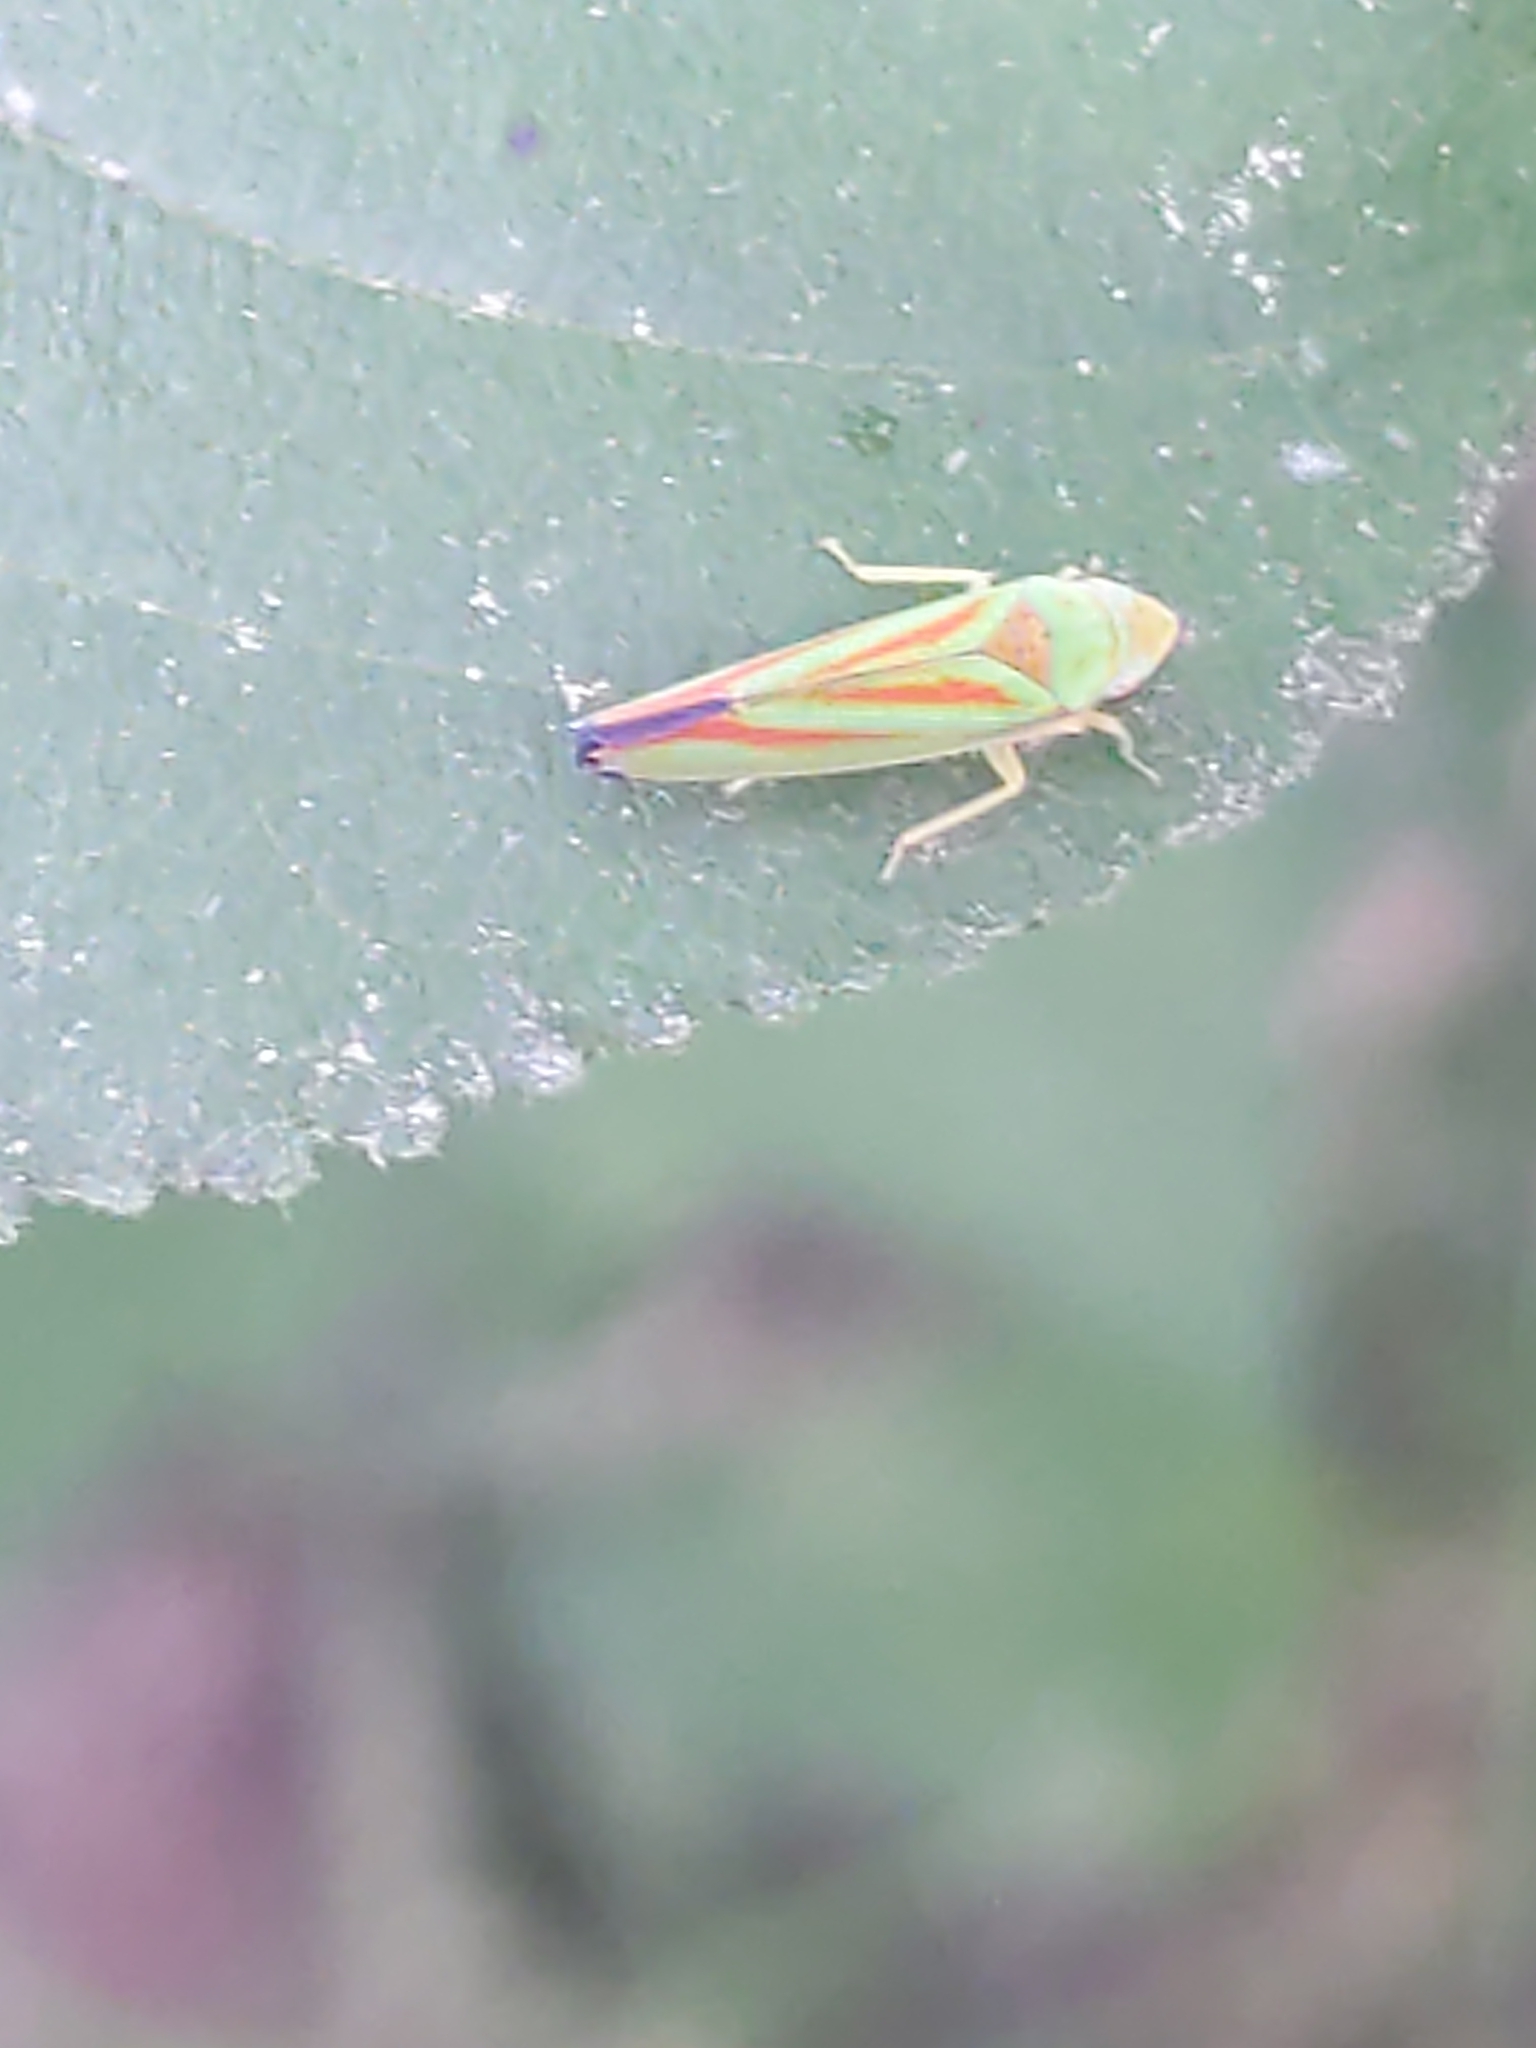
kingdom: Animalia
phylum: Arthropoda
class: Insecta
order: Hemiptera
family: Cicadellidae
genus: Graphocephala
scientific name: Graphocephala fennahi
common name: Rhododendron leafhopper
